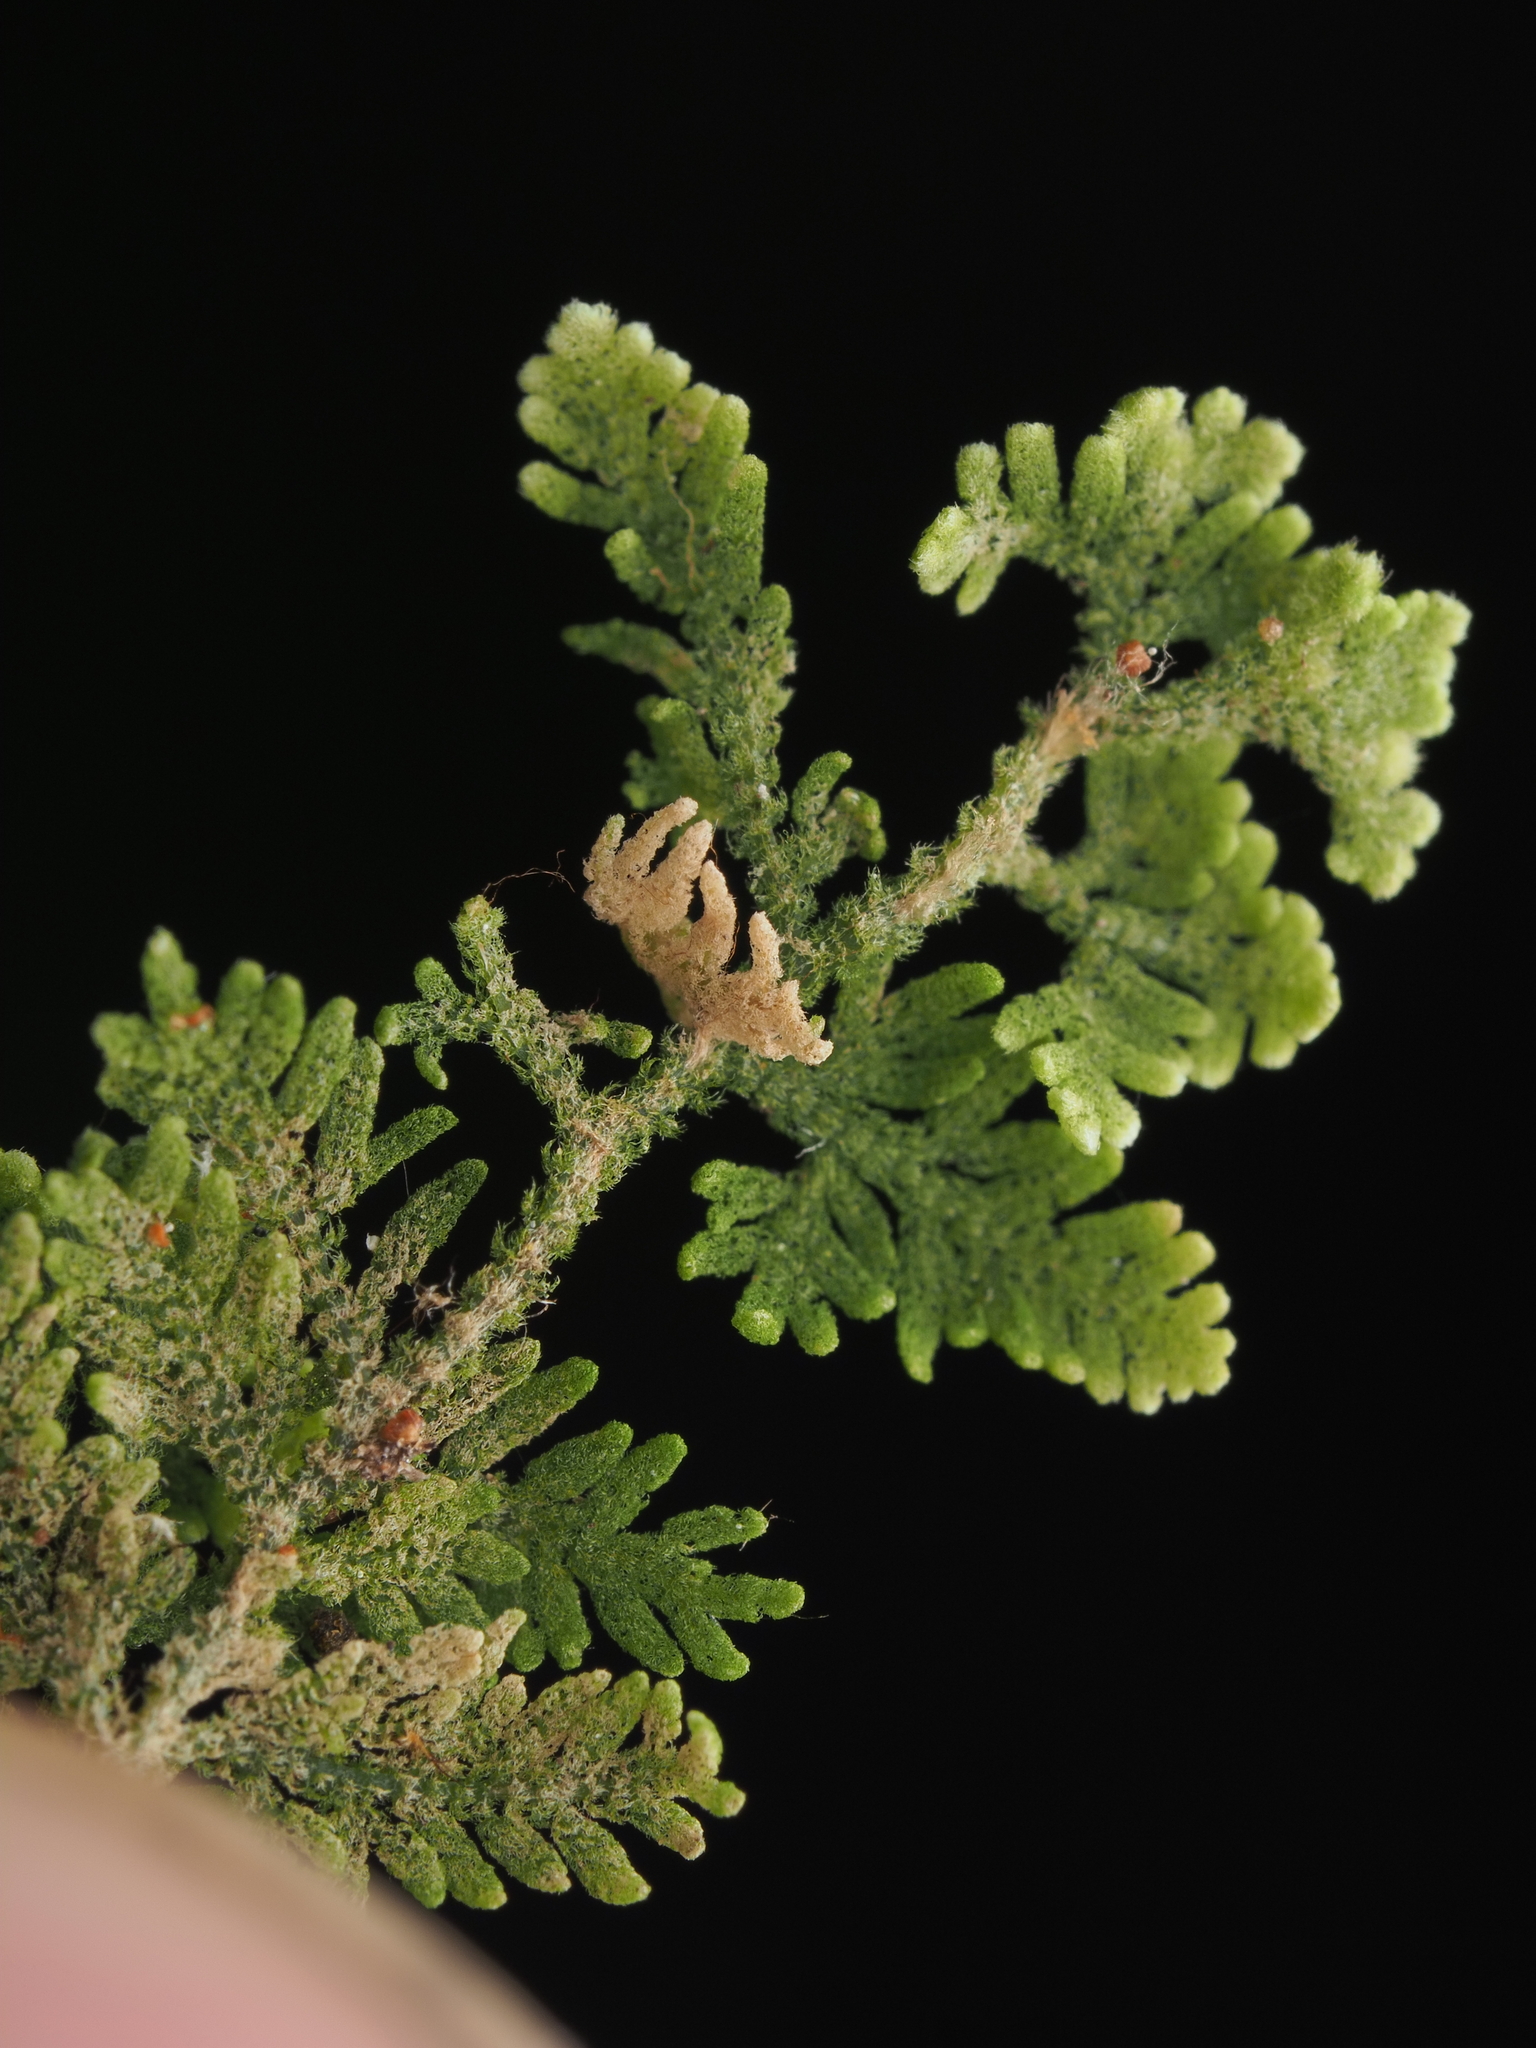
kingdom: Plantae
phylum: Marchantiophyta
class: Jungermanniopsida
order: Jungermanniales
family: Trichocoleaceae
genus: Trichocolea
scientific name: Trichocolea mollissima
